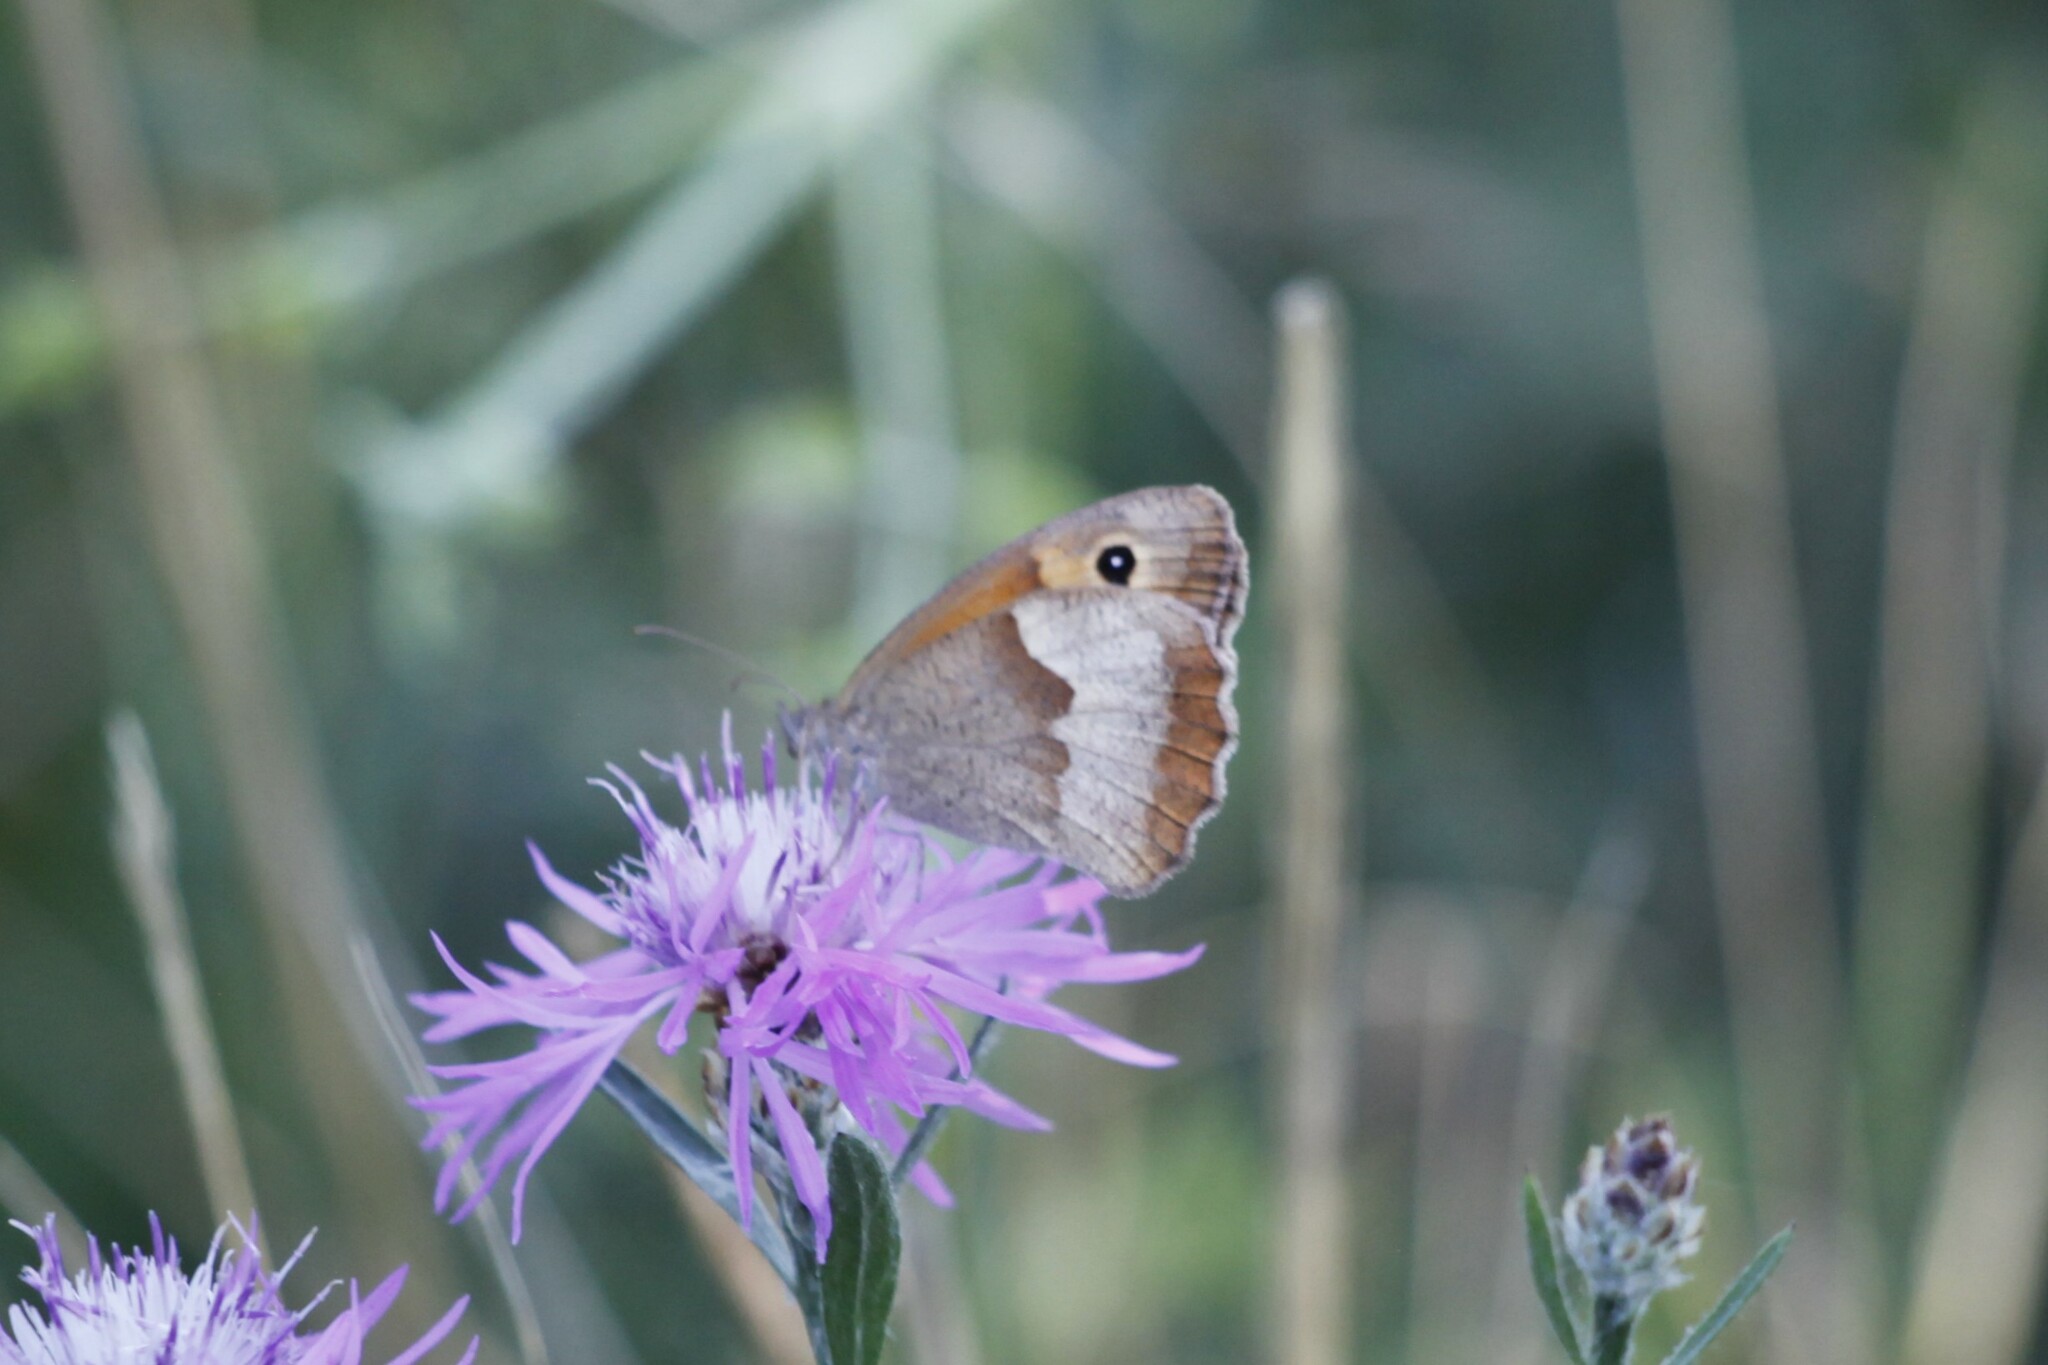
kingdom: Animalia
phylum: Arthropoda
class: Insecta
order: Lepidoptera
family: Nymphalidae
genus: Maniola
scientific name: Maniola jurtina
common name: Meadow brown
